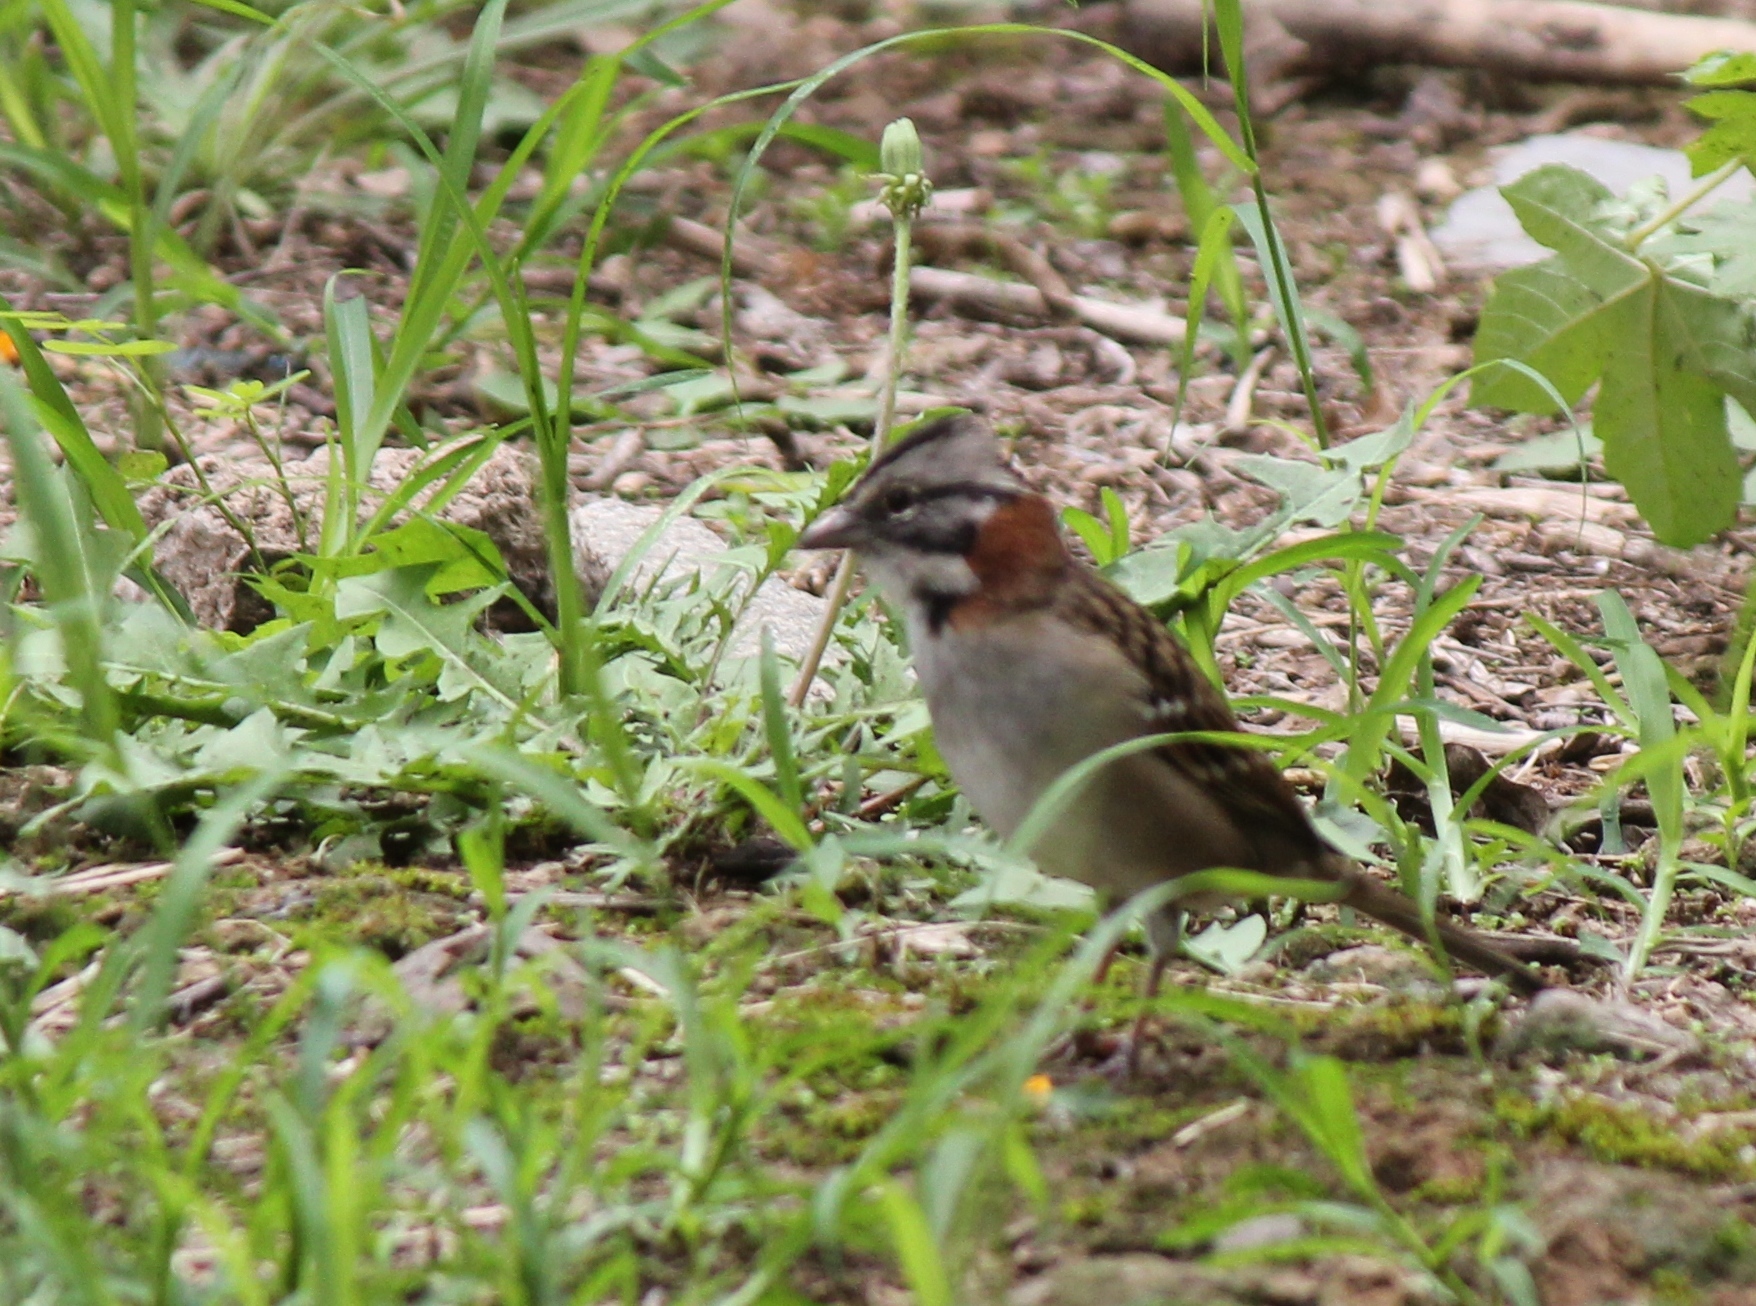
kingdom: Animalia
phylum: Chordata
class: Aves
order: Passeriformes
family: Passerellidae
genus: Zonotrichia
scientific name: Zonotrichia capensis
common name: Rufous-collared sparrow
